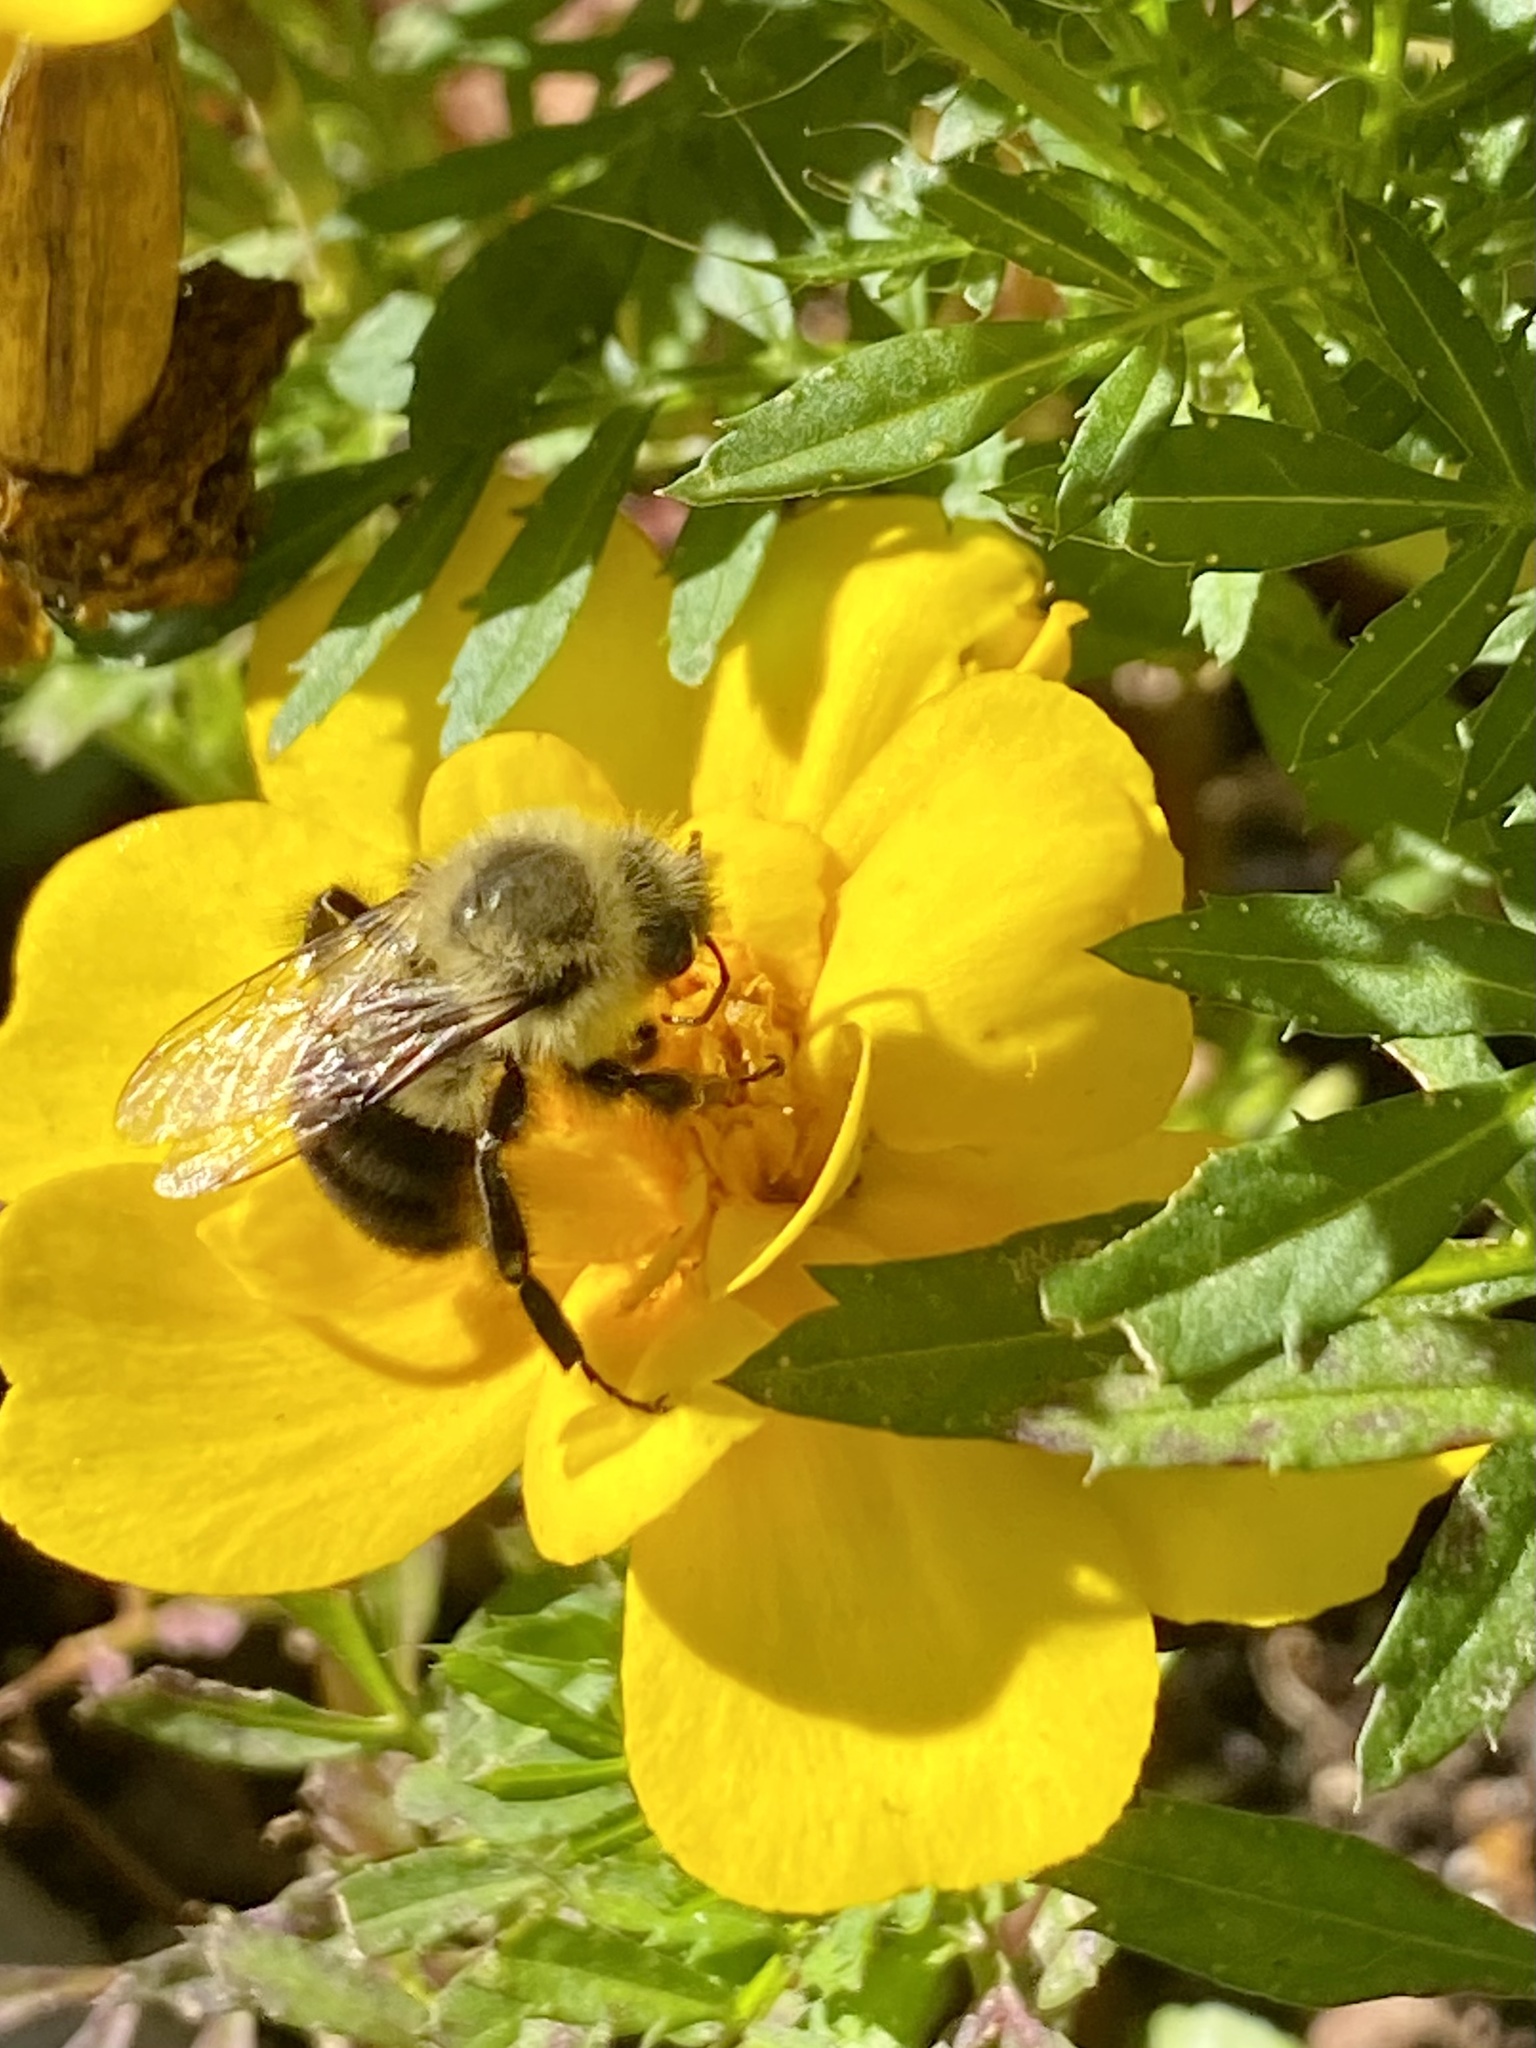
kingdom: Animalia
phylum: Arthropoda
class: Insecta
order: Hymenoptera
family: Apidae
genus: Bombus
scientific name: Bombus impatiens
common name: Common eastern bumble bee
